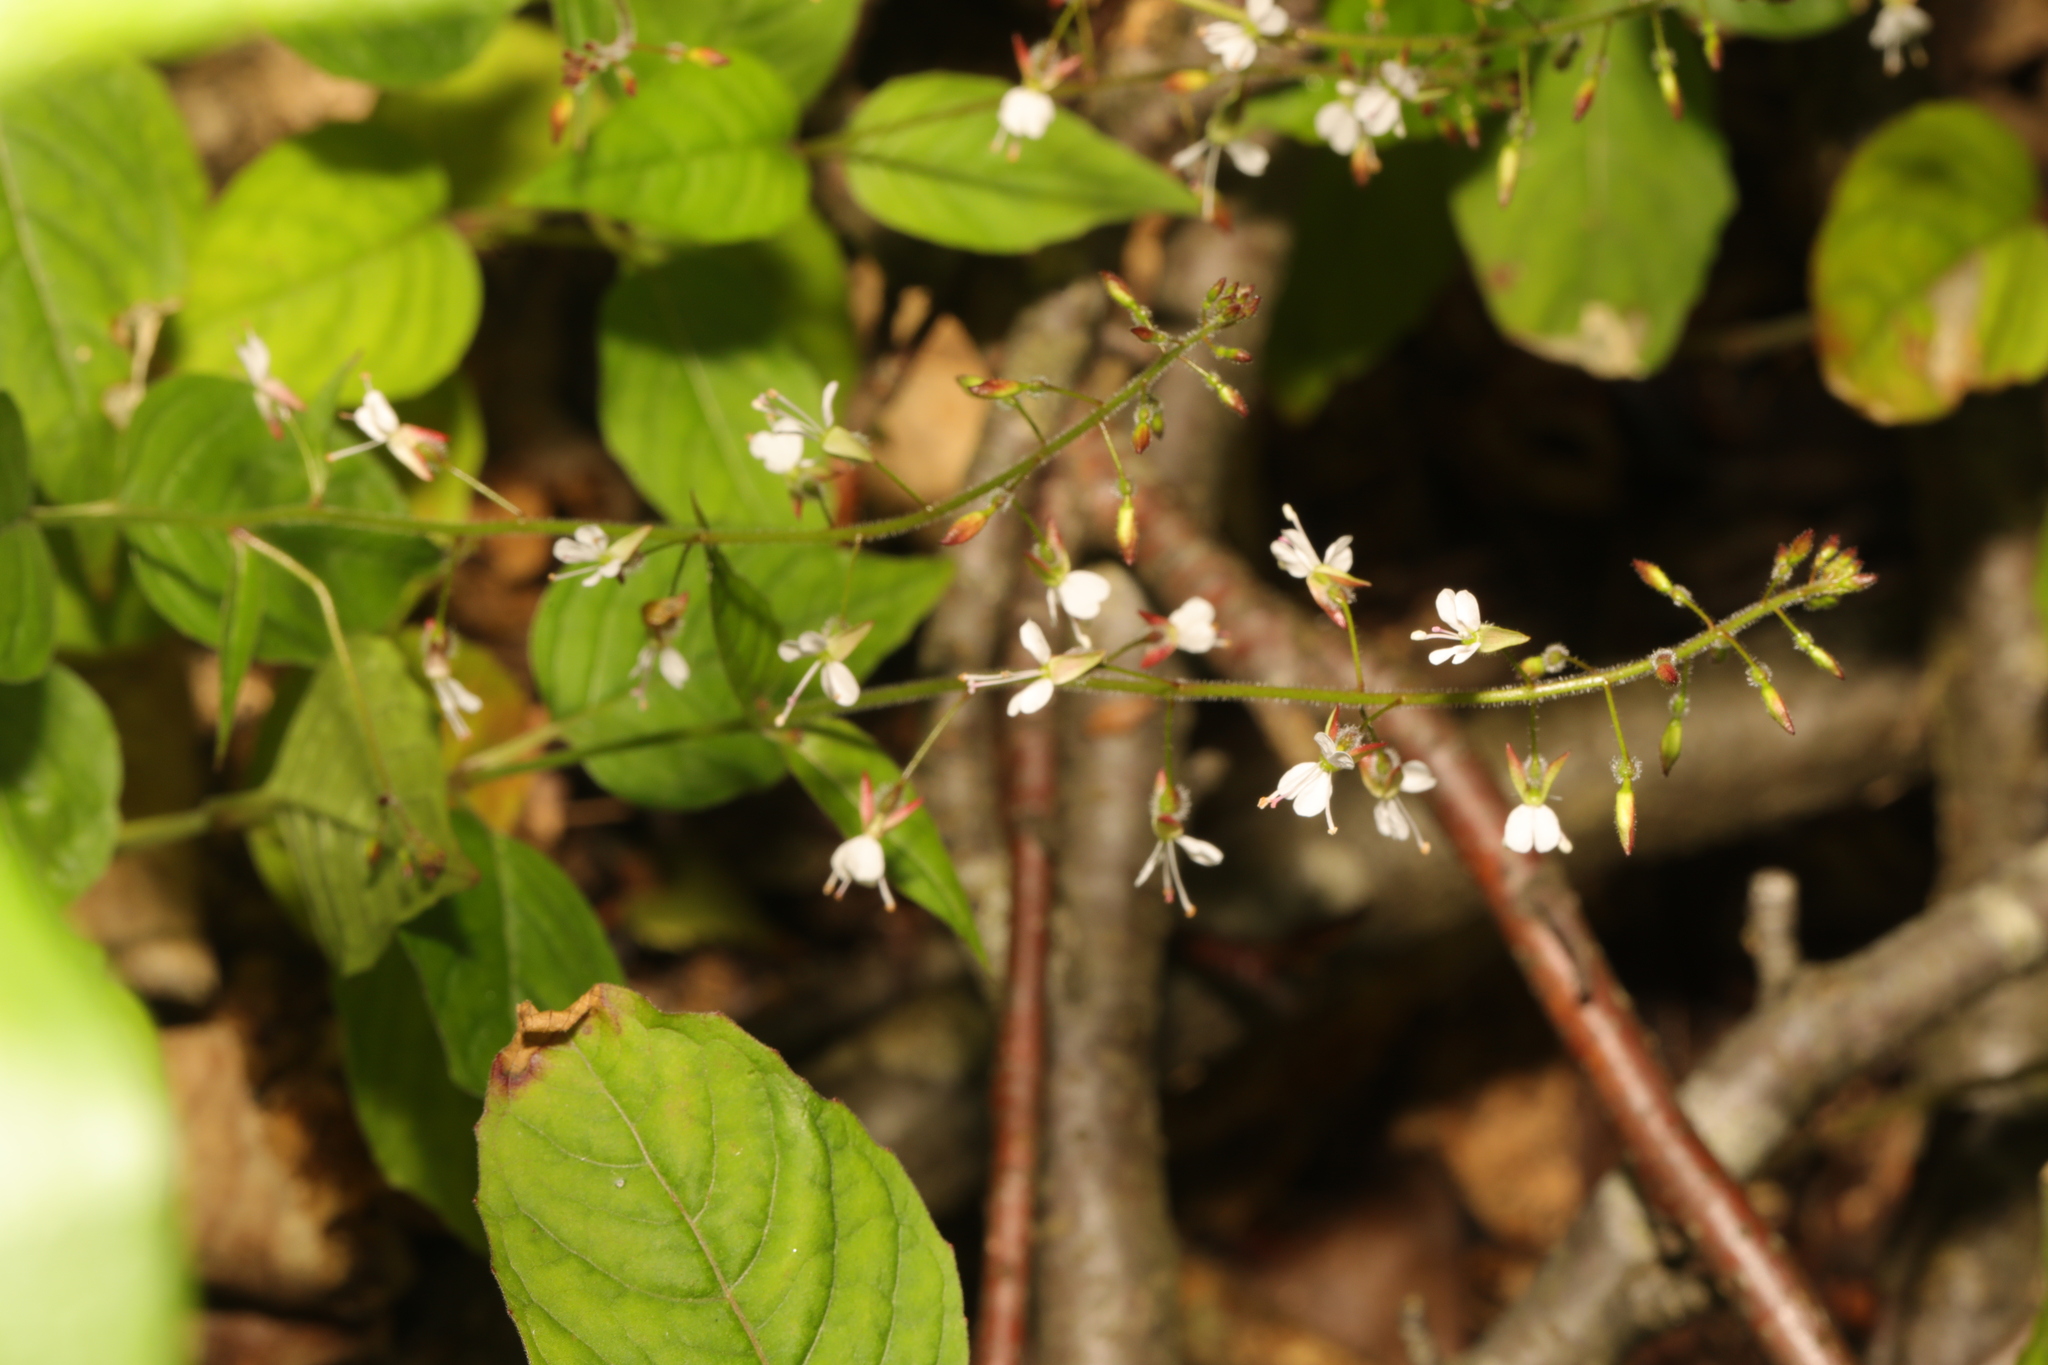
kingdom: Plantae
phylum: Tracheophyta
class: Magnoliopsida
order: Myrtales
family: Onagraceae
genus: Circaea
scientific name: Circaea lutetiana
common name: Enchanter's-nightshade
